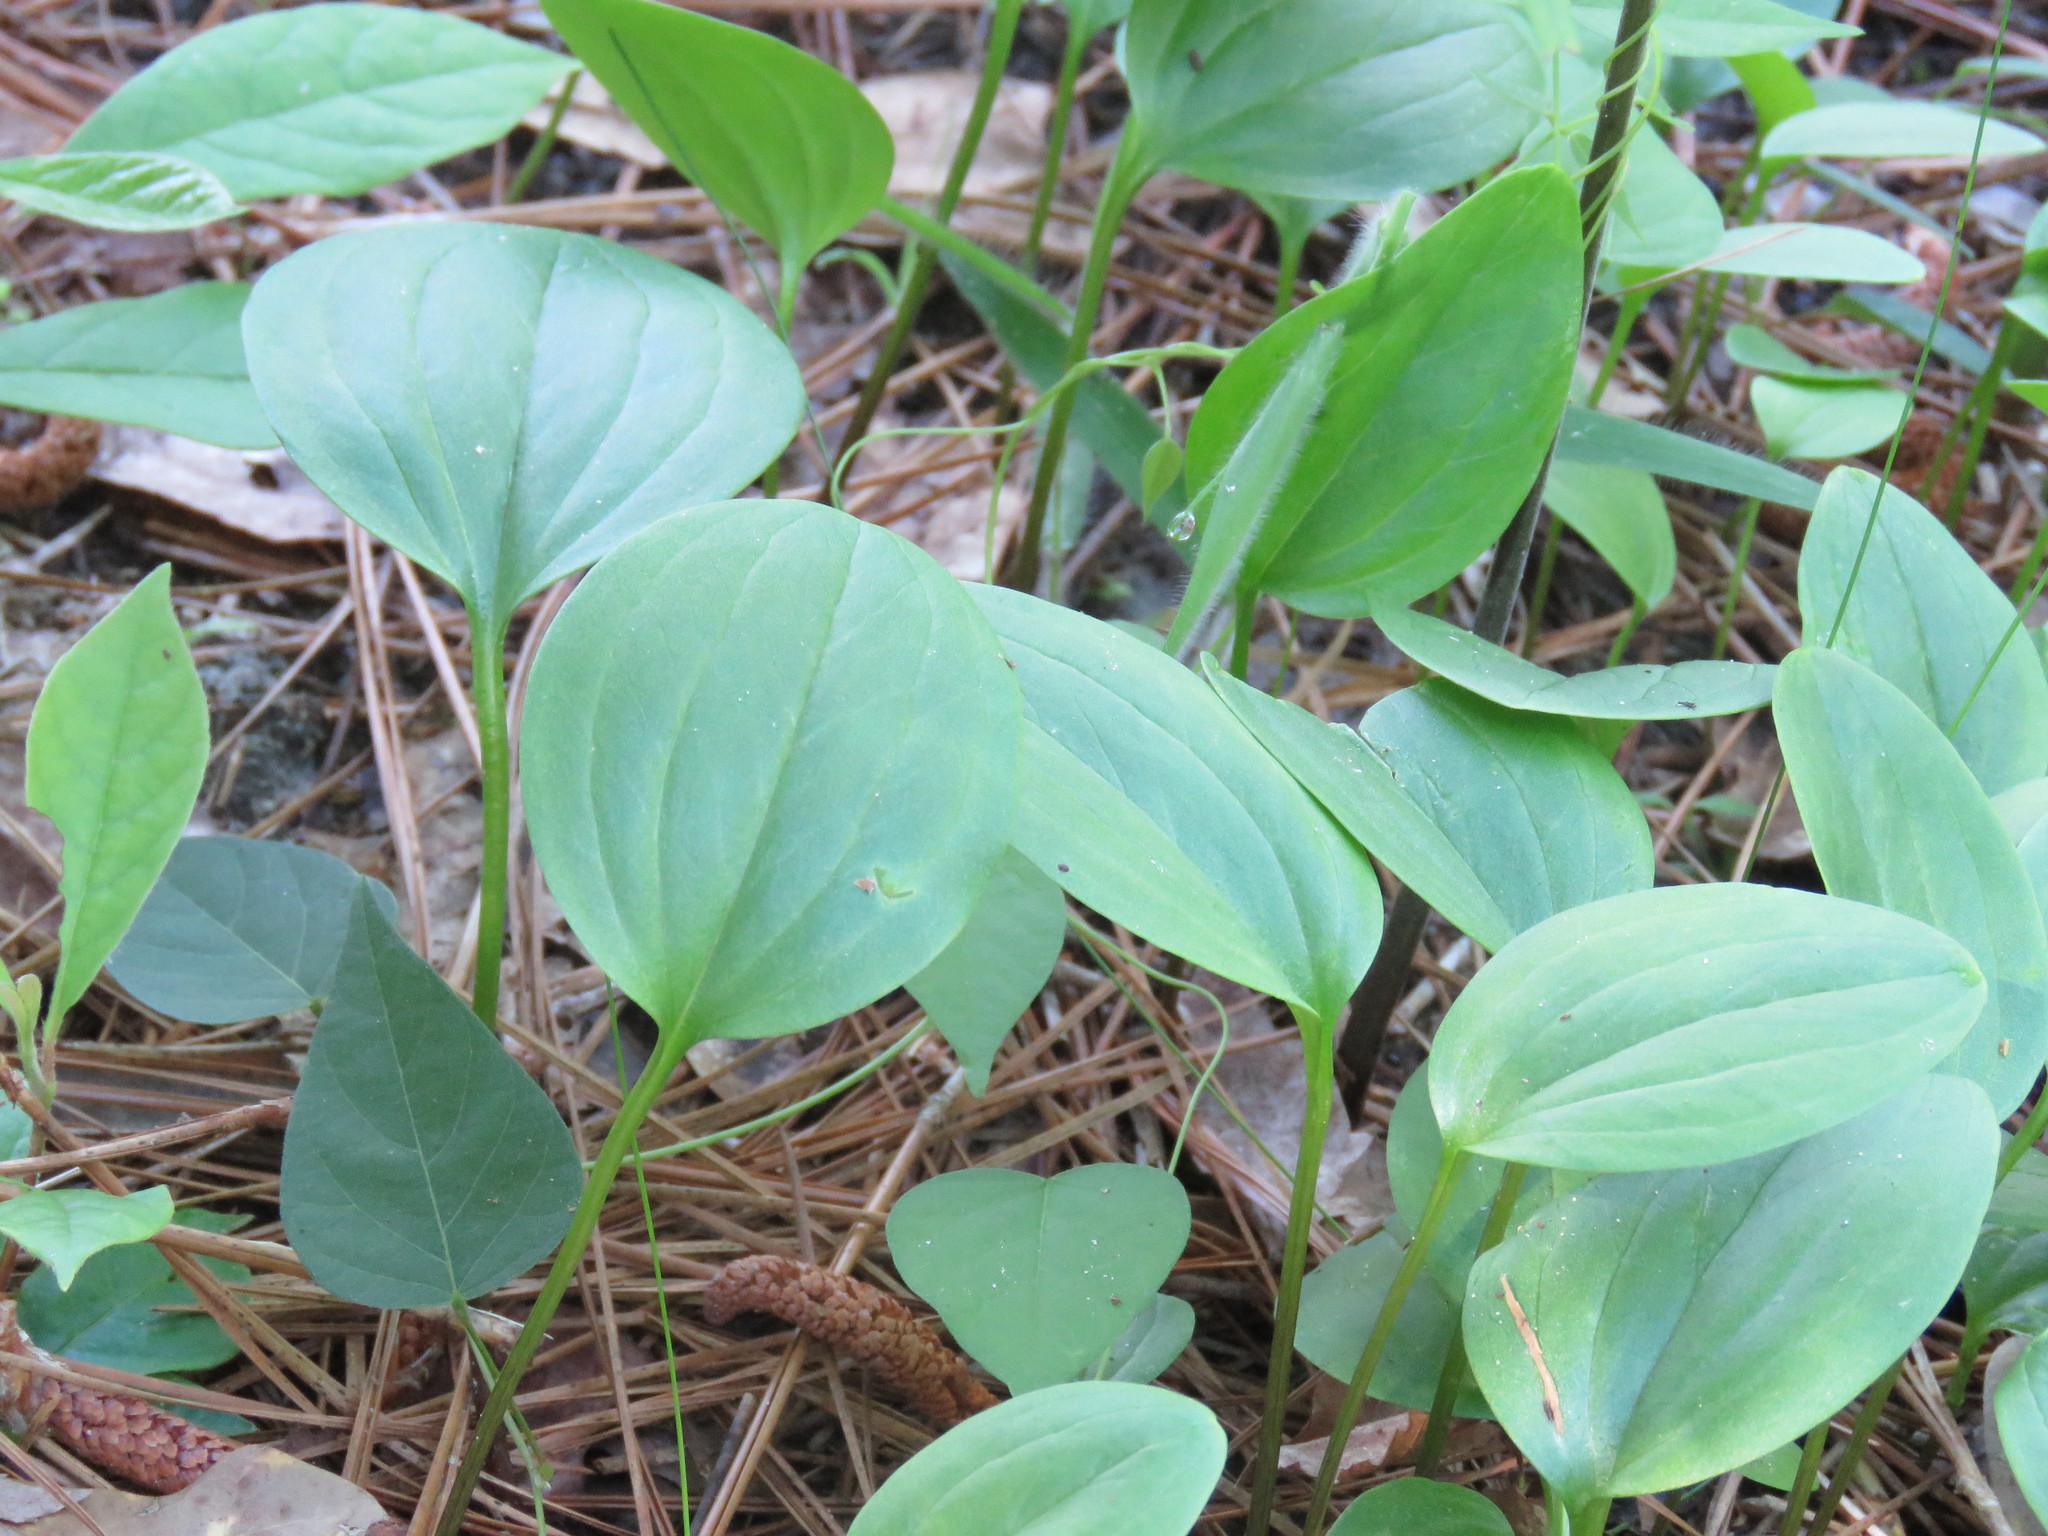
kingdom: Plantae
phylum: Tracheophyta
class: Liliopsida
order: Liliales
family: Melanthiaceae
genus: Trillium
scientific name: Trillium pusillum
